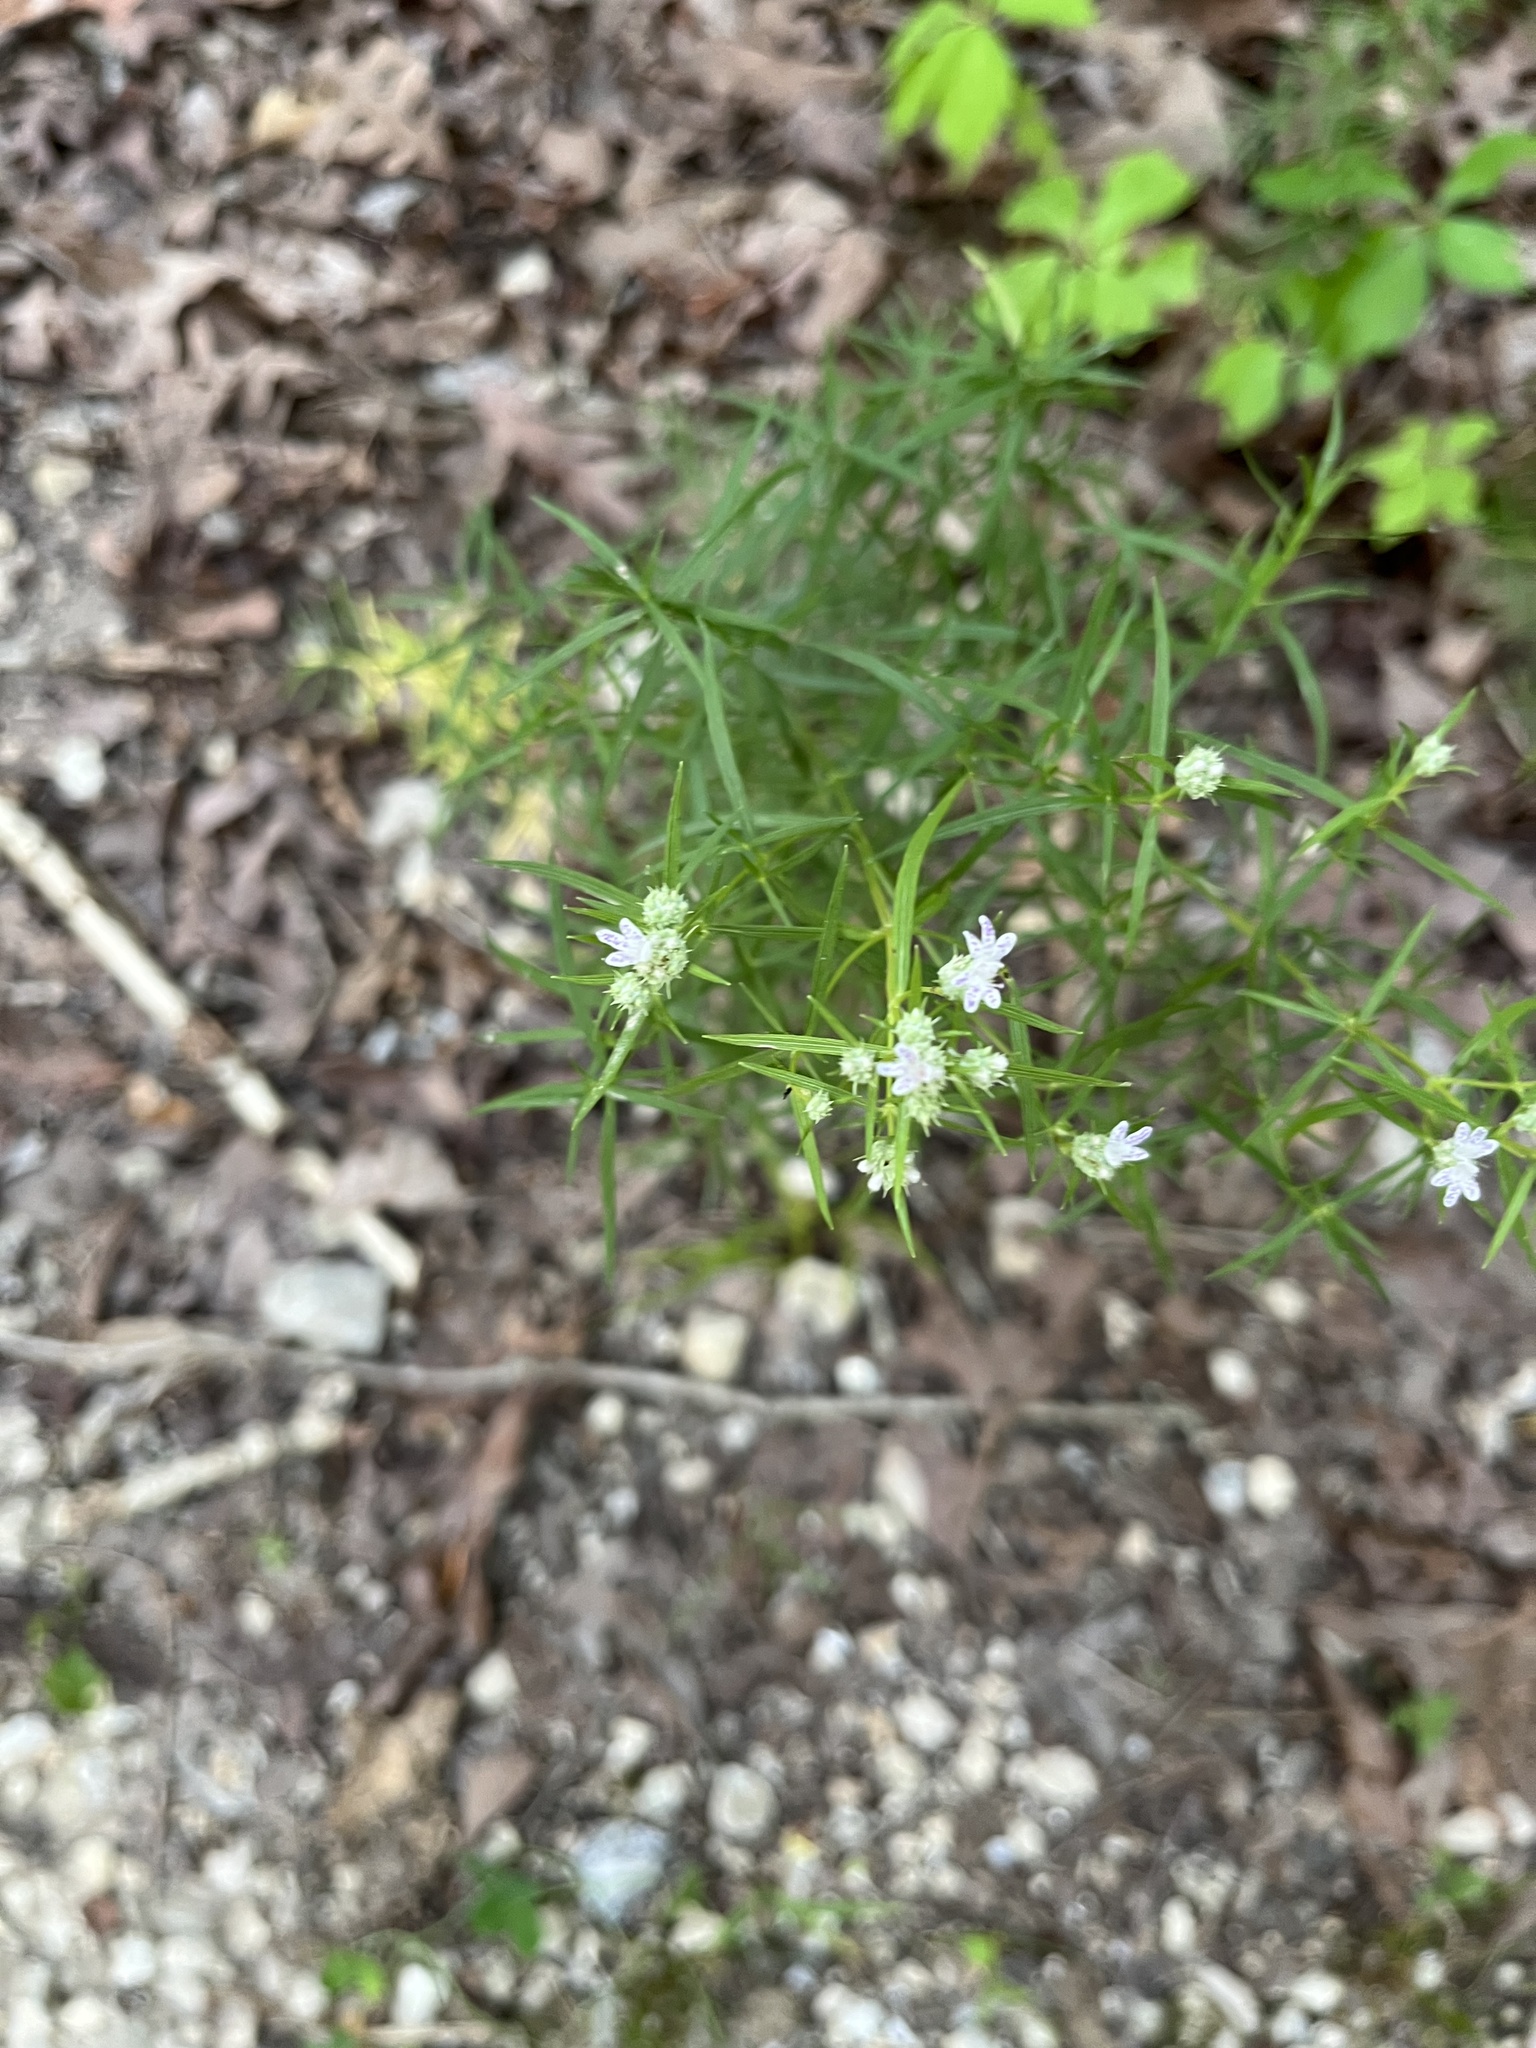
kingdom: Plantae
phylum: Tracheophyta
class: Magnoliopsida
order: Lamiales
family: Lamiaceae
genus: Pycnanthemum
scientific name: Pycnanthemum tenuifolium
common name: Narrow-leaf mountain-mint
